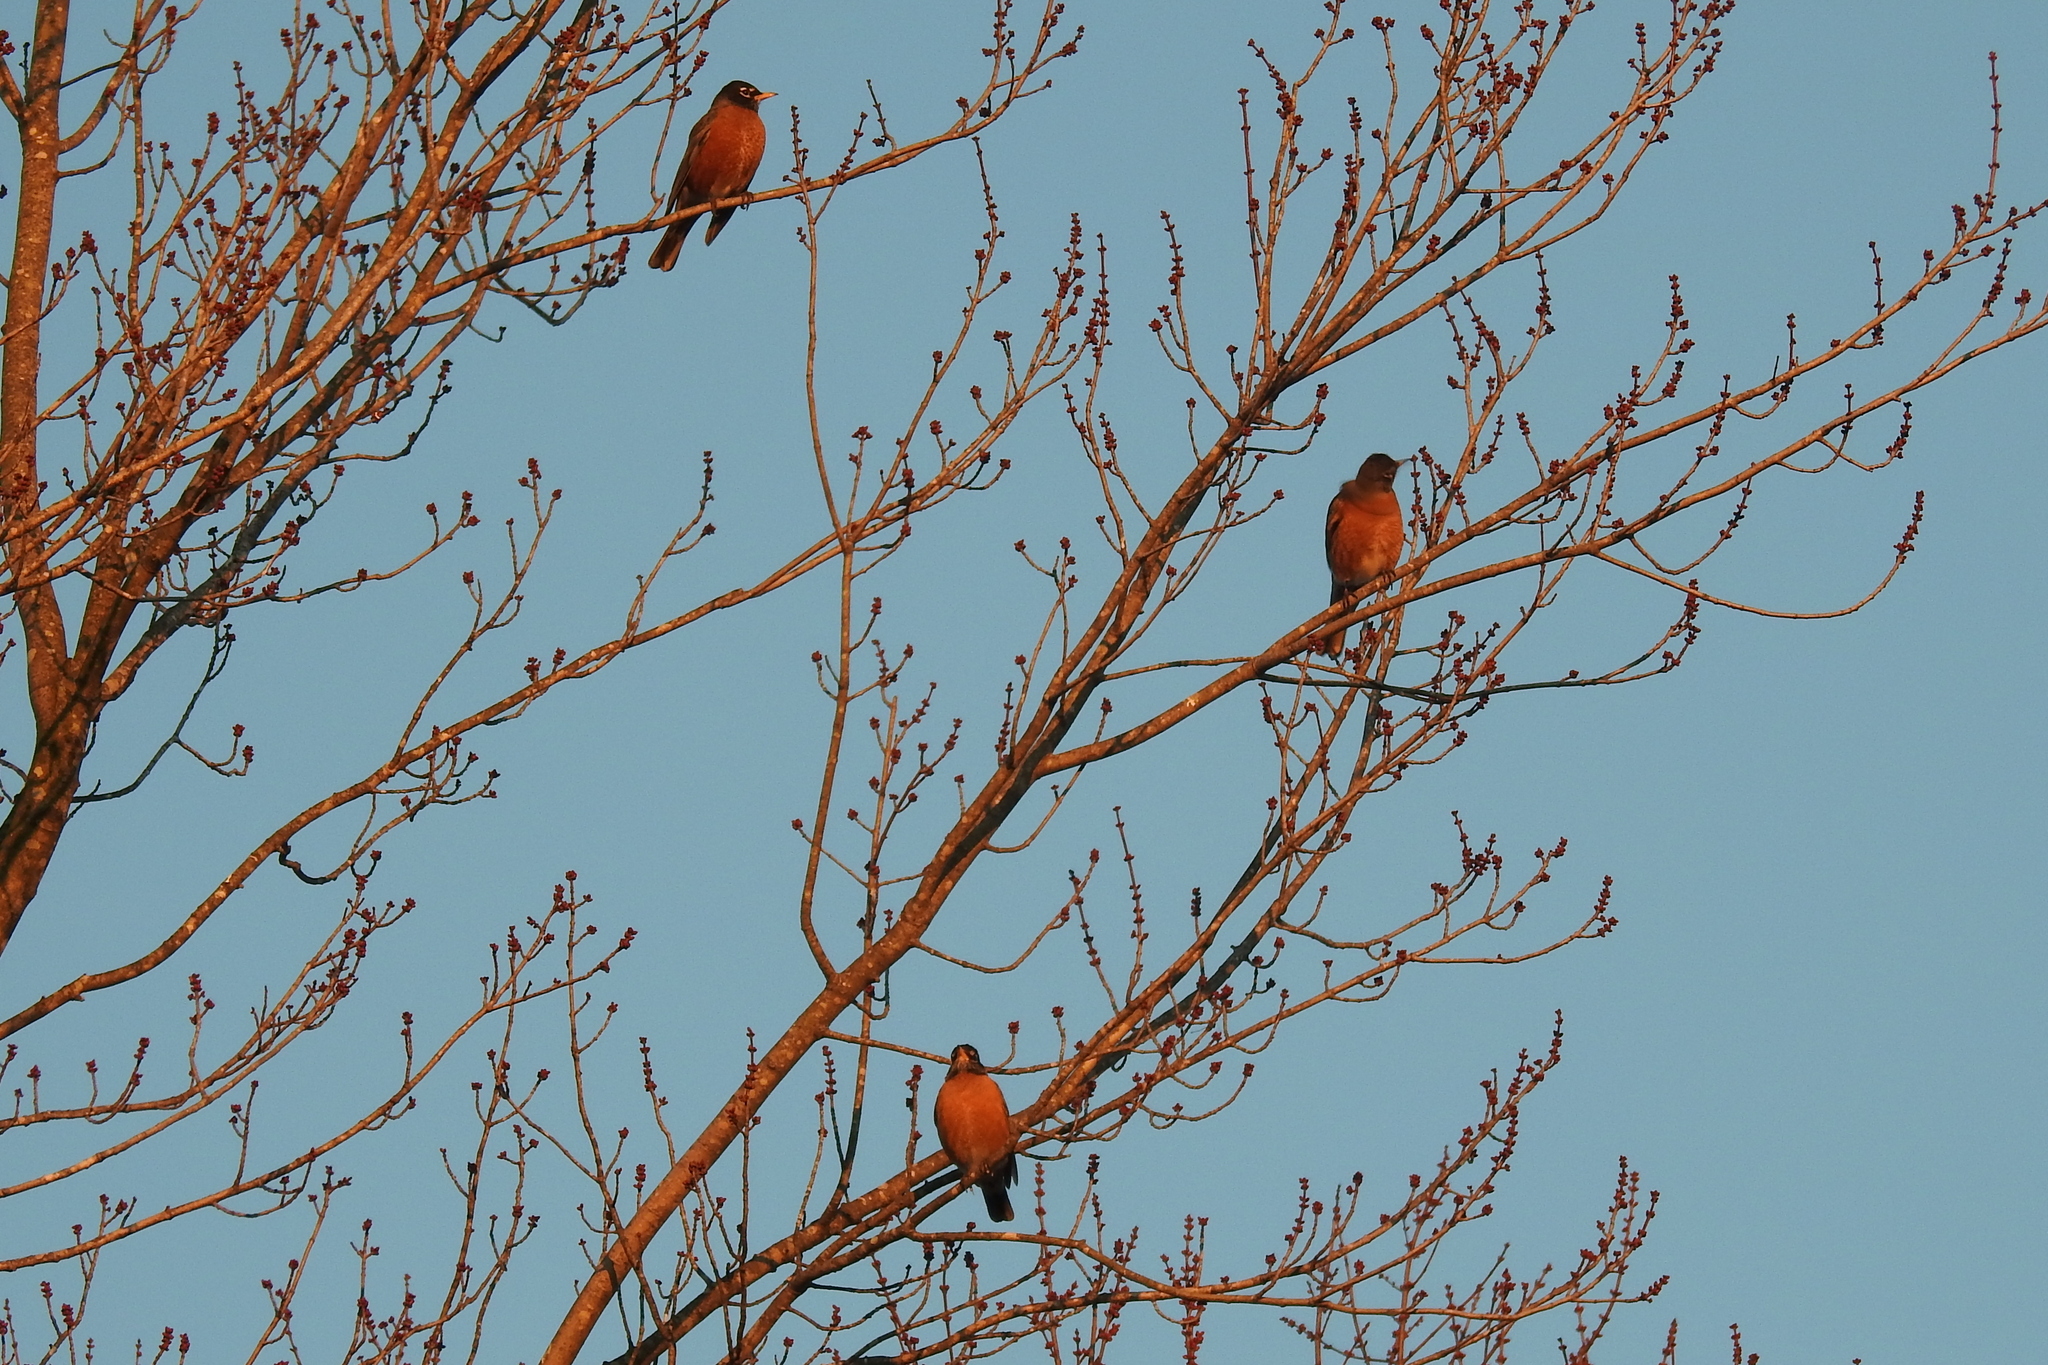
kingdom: Animalia
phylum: Chordata
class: Aves
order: Passeriformes
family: Turdidae
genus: Turdus
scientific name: Turdus migratorius
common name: American robin
